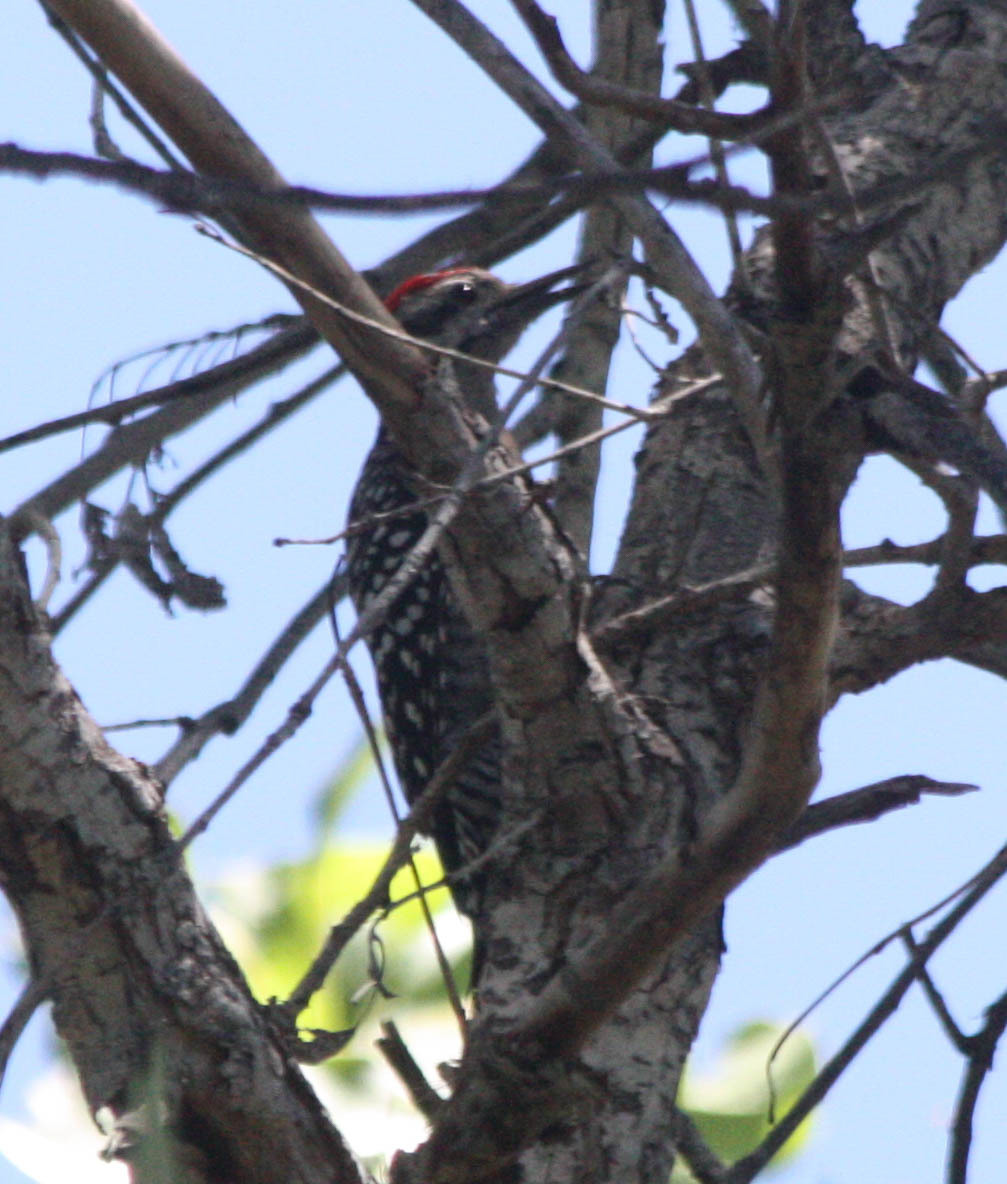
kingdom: Animalia
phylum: Chordata
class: Aves
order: Piciformes
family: Picidae
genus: Dryobates
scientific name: Dryobates scalaris
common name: Ladder-backed woodpecker
